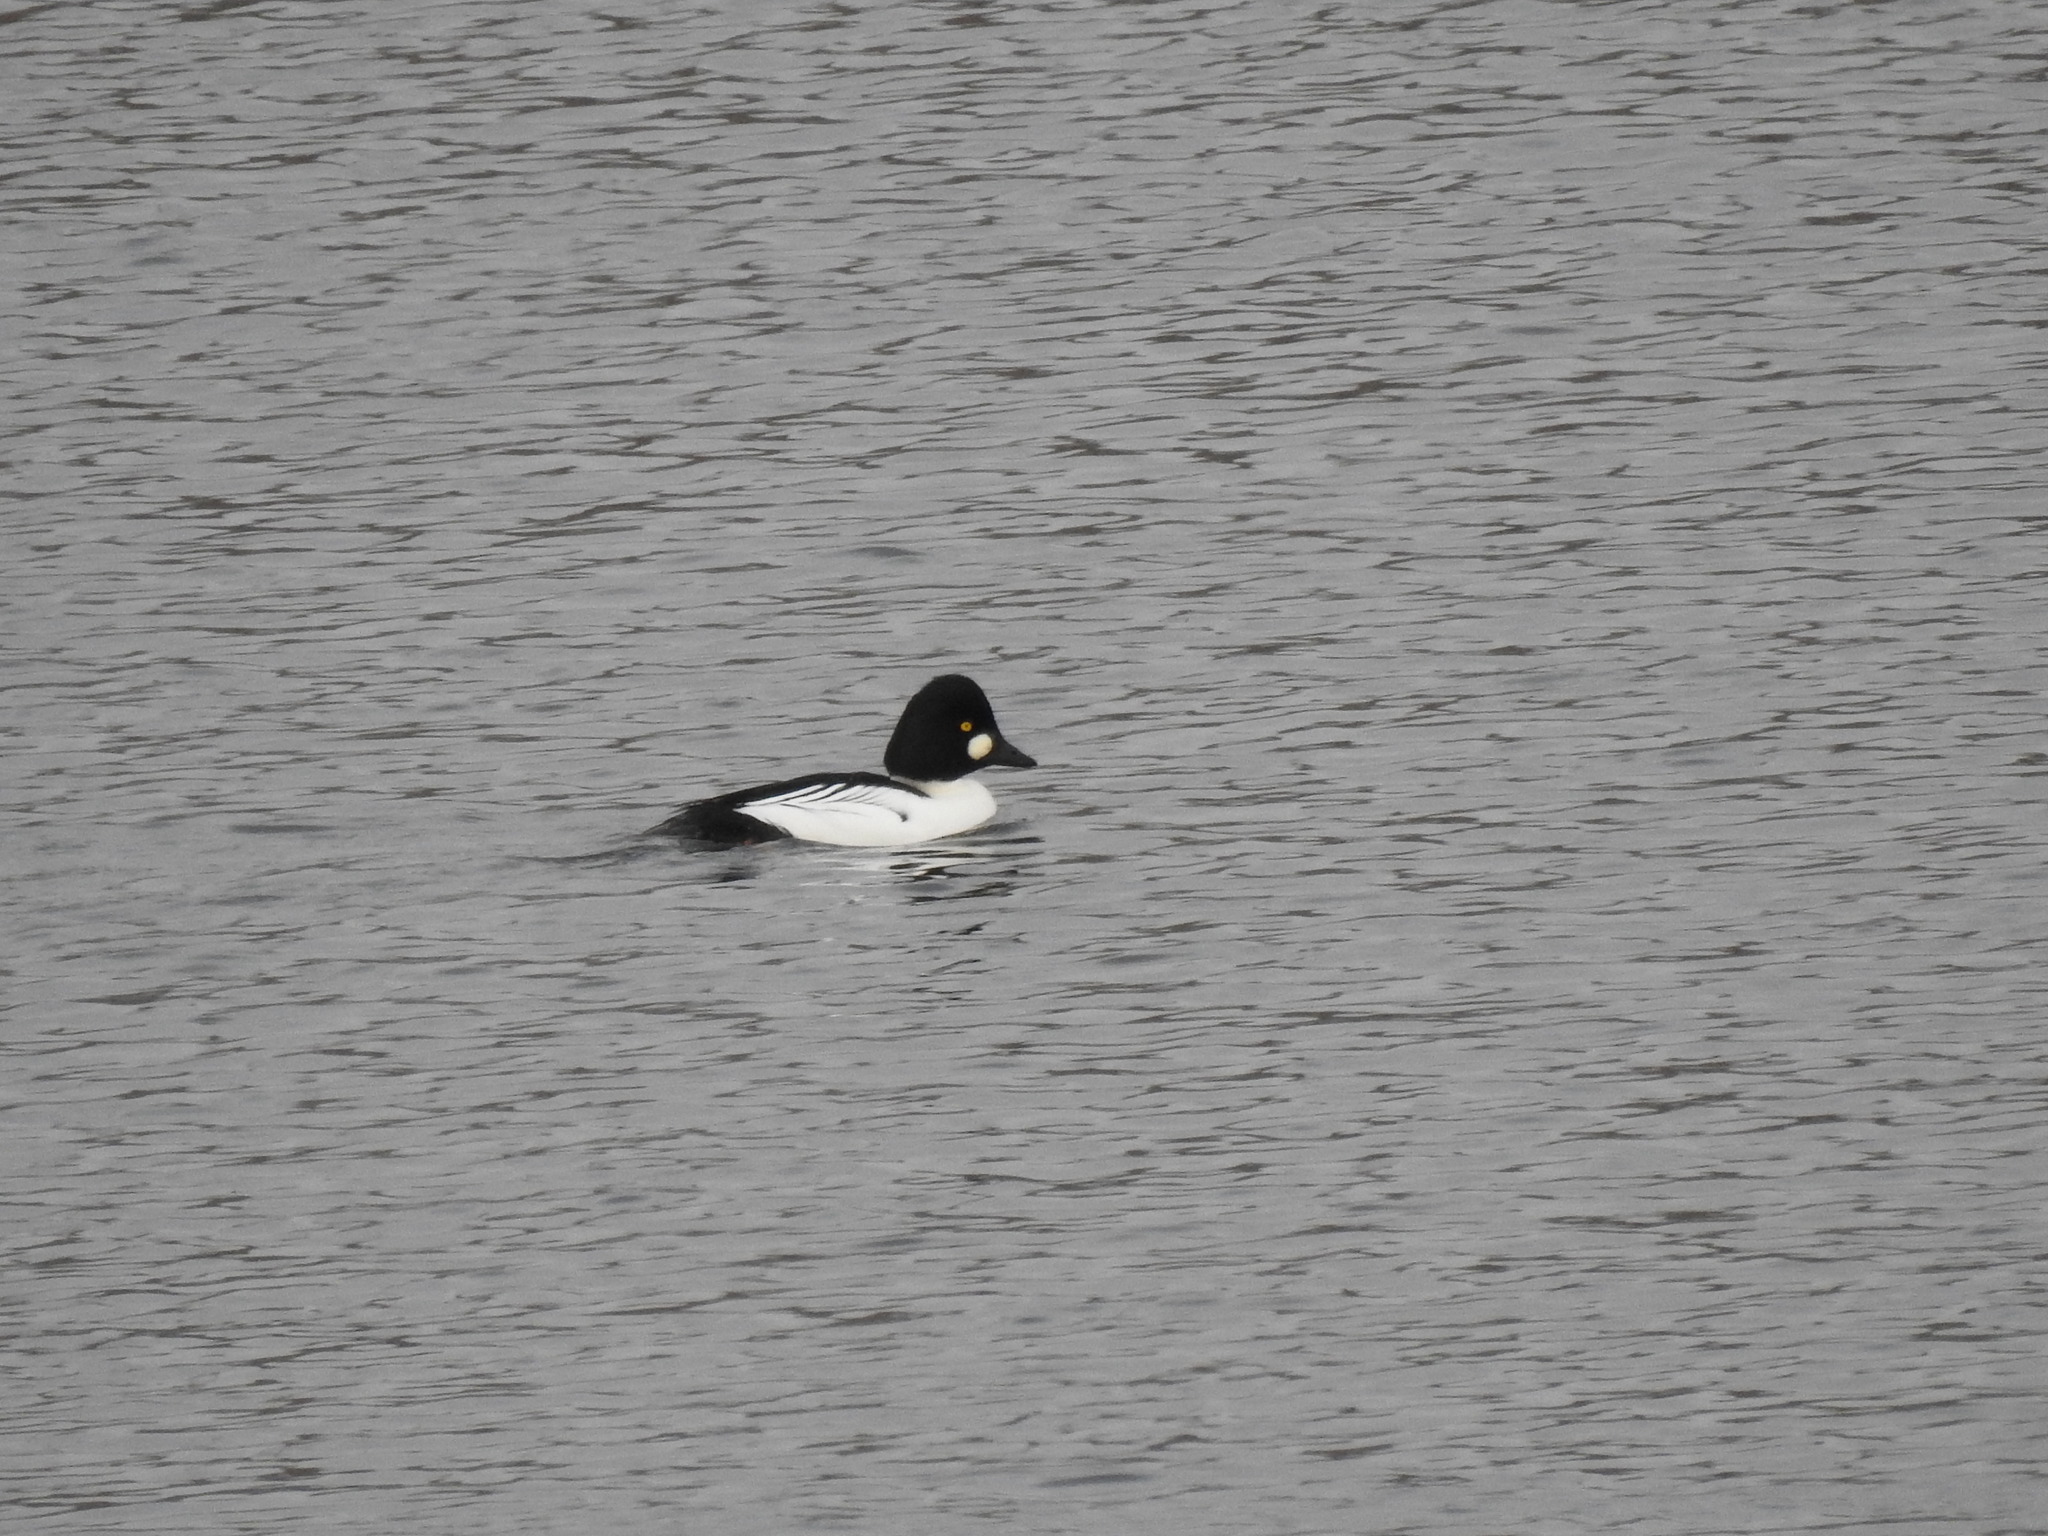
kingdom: Animalia
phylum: Chordata
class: Aves
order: Anseriformes
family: Anatidae
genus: Bucephala
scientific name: Bucephala clangula
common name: Common goldeneye
